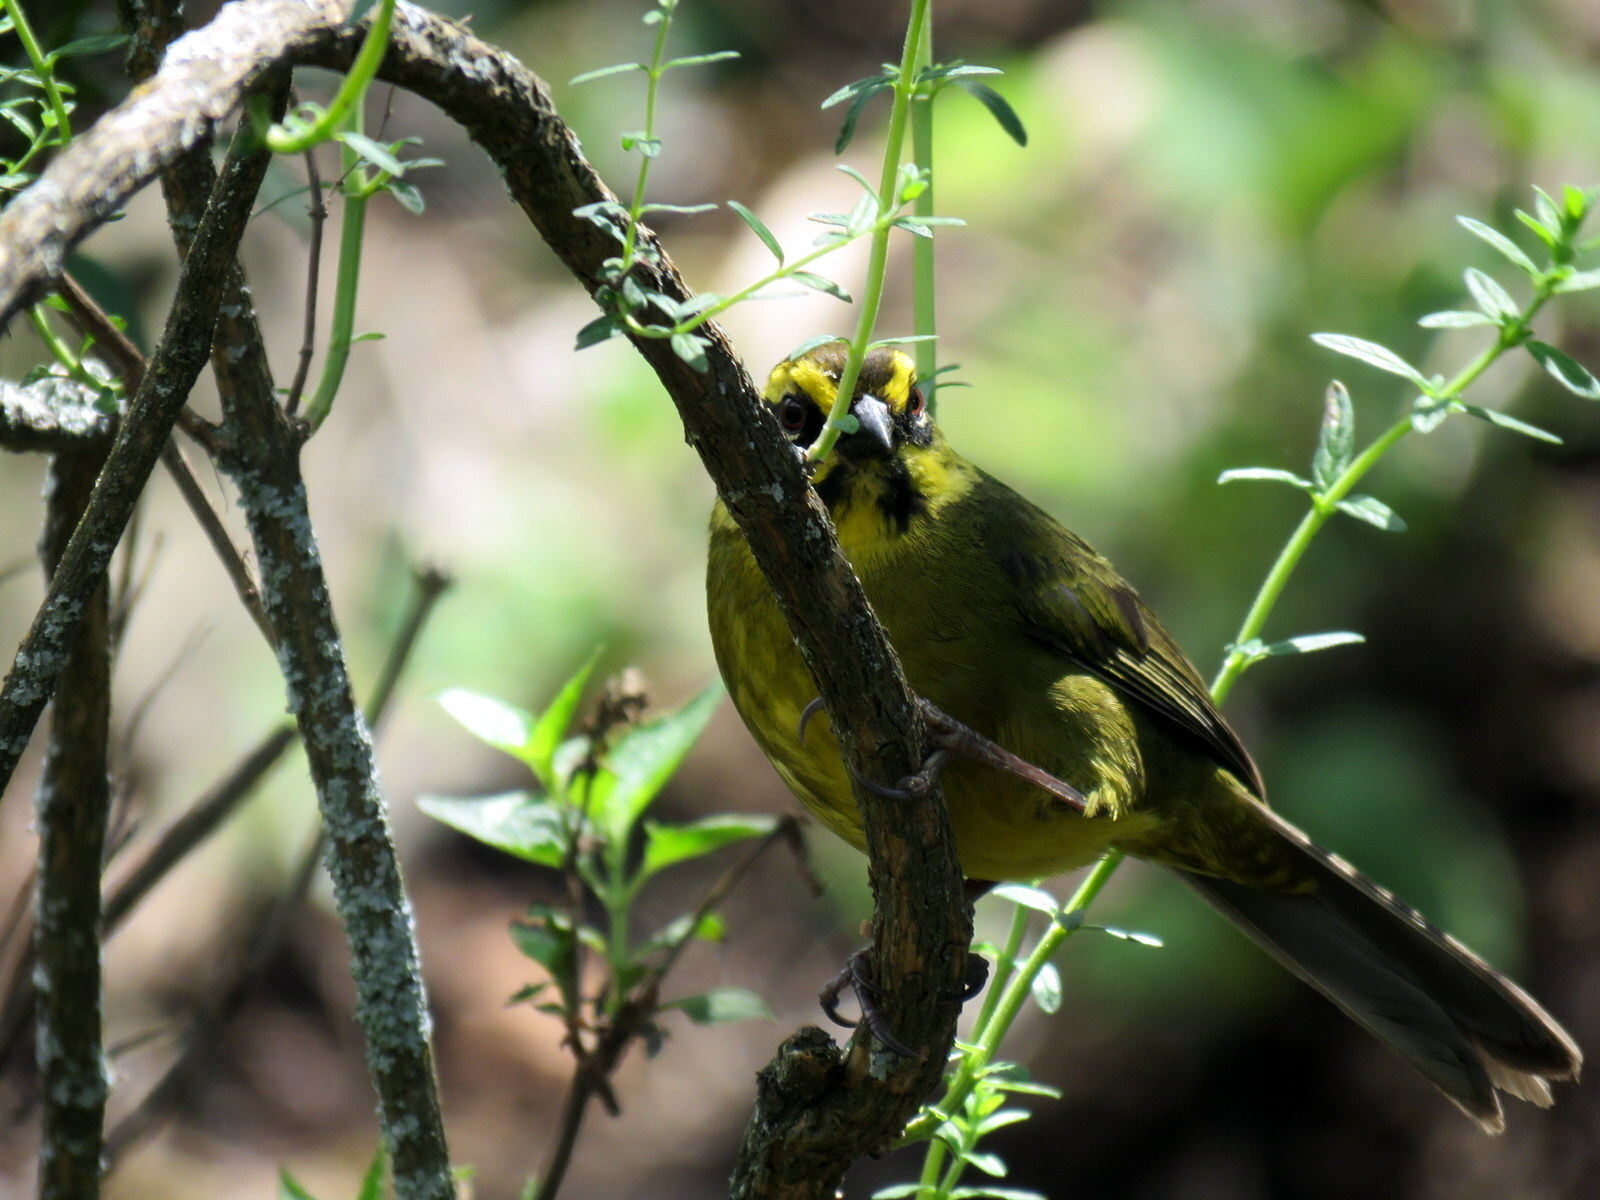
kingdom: Animalia
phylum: Chordata
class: Aves
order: Passeriformes
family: Passerellidae
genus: Atlapetes
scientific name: Atlapetes citrinellus
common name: Yellow-striped brushfinch
